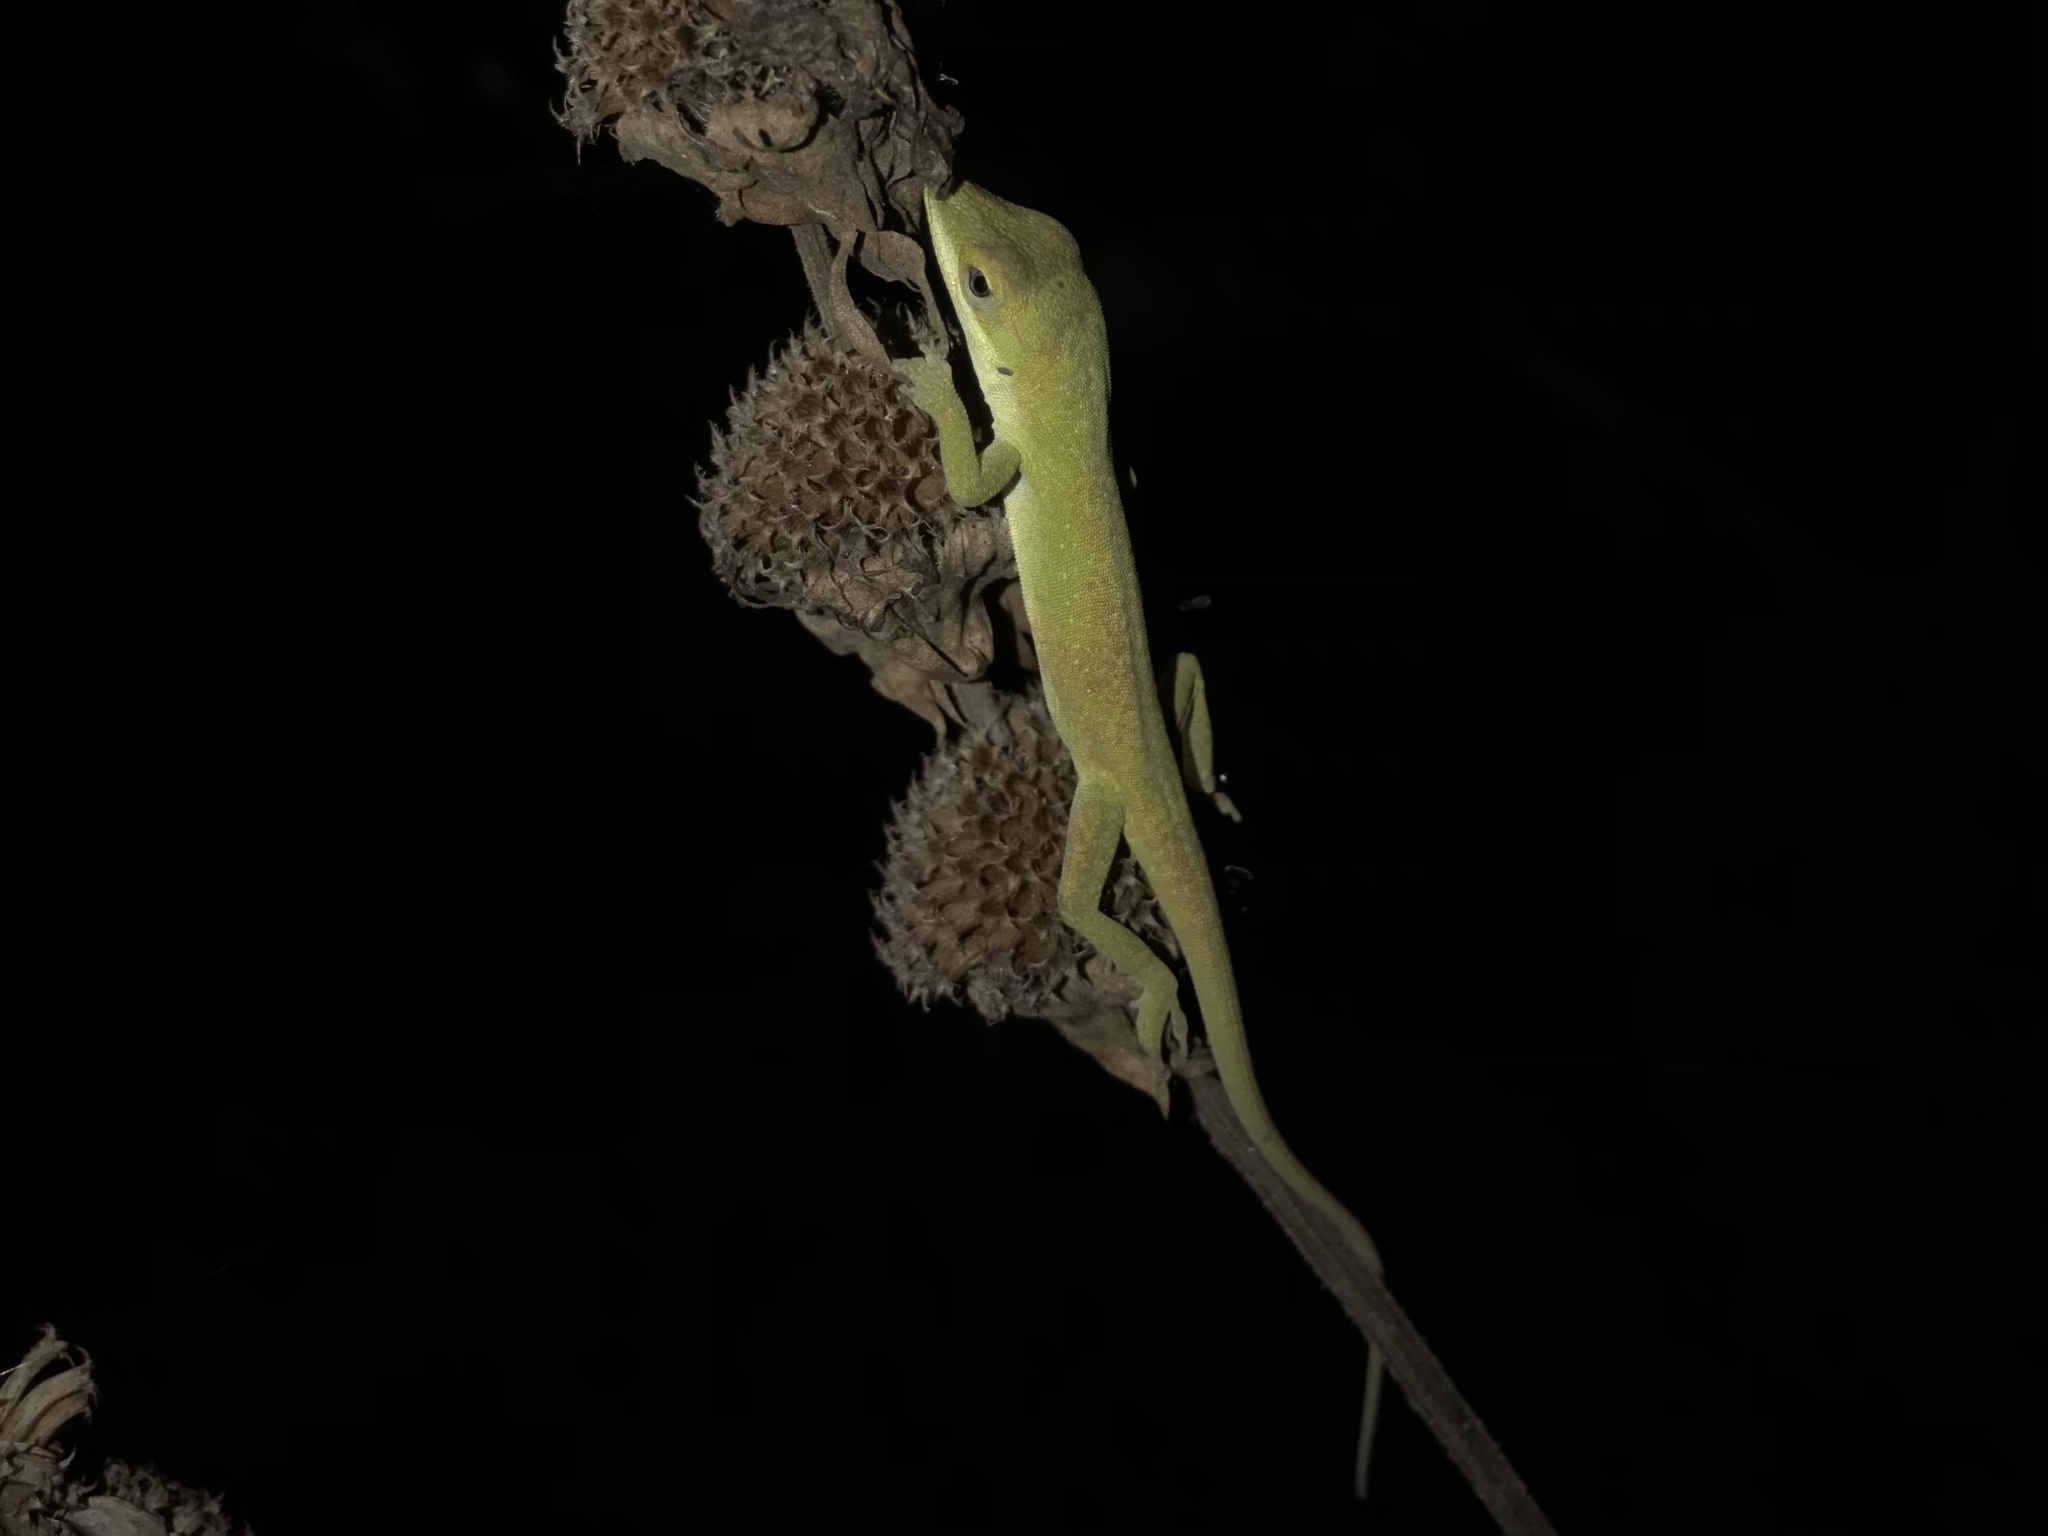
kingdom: Animalia
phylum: Chordata
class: Squamata
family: Dactyloidae
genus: Anolis
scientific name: Anolis carolinensis
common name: Green anole
